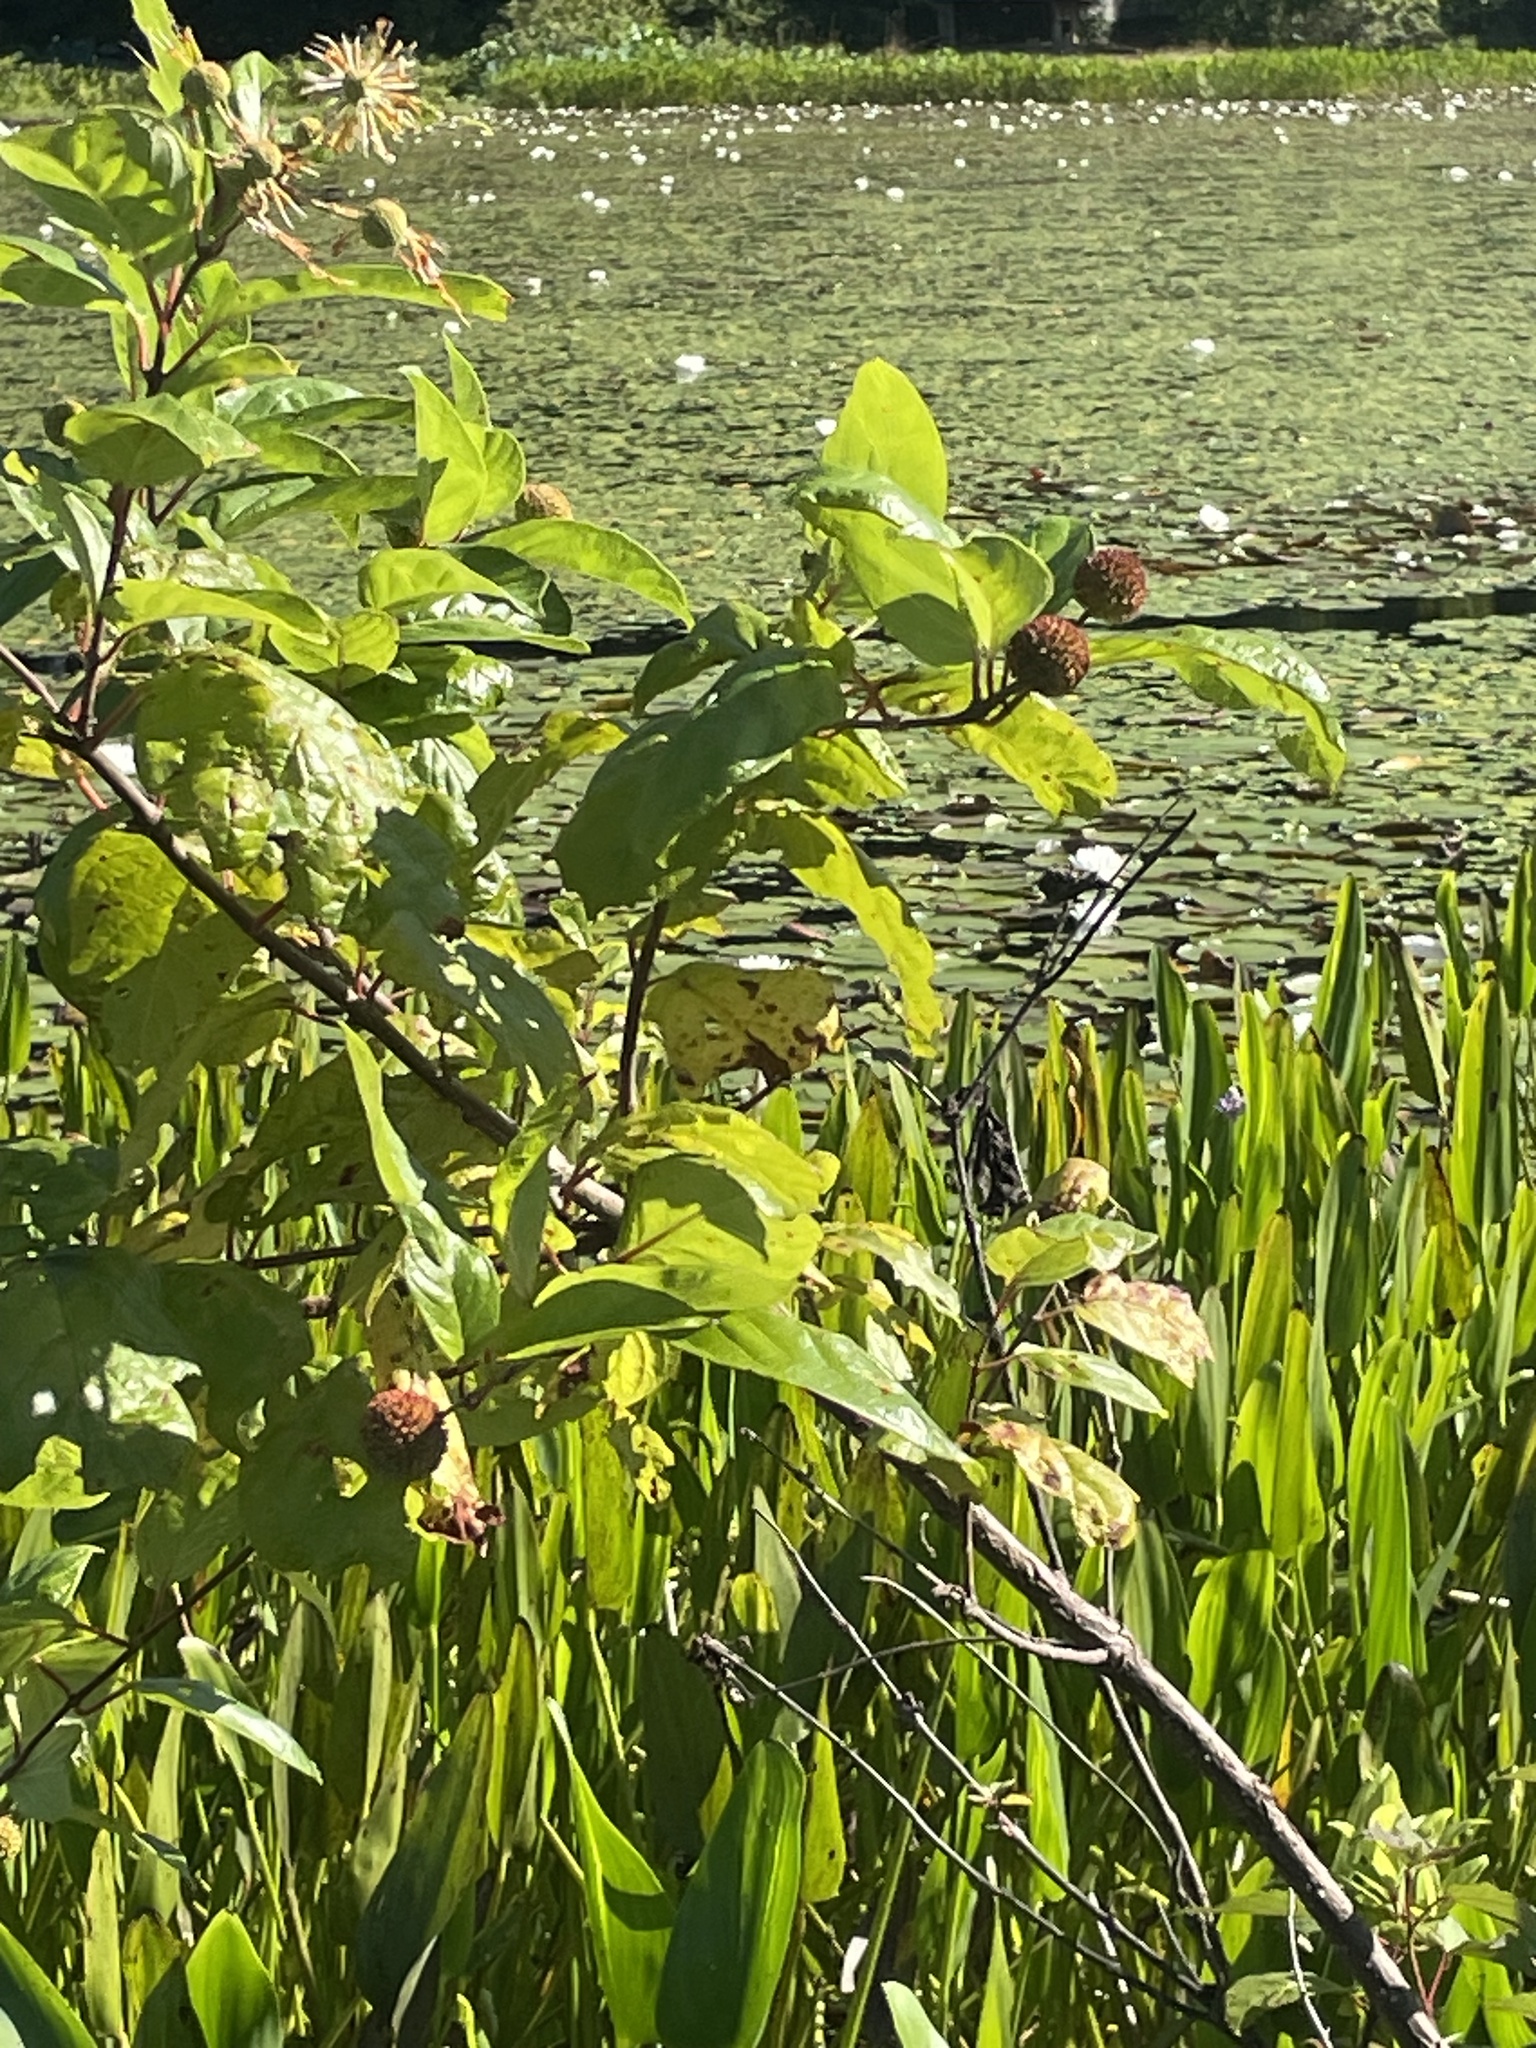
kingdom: Plantae
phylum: Tracheophyta
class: Magnoliopsida
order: Gentianales
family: Rubiaceae
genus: Cephalanthus
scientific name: Cephalanthus occidentalis
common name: Button-willow
